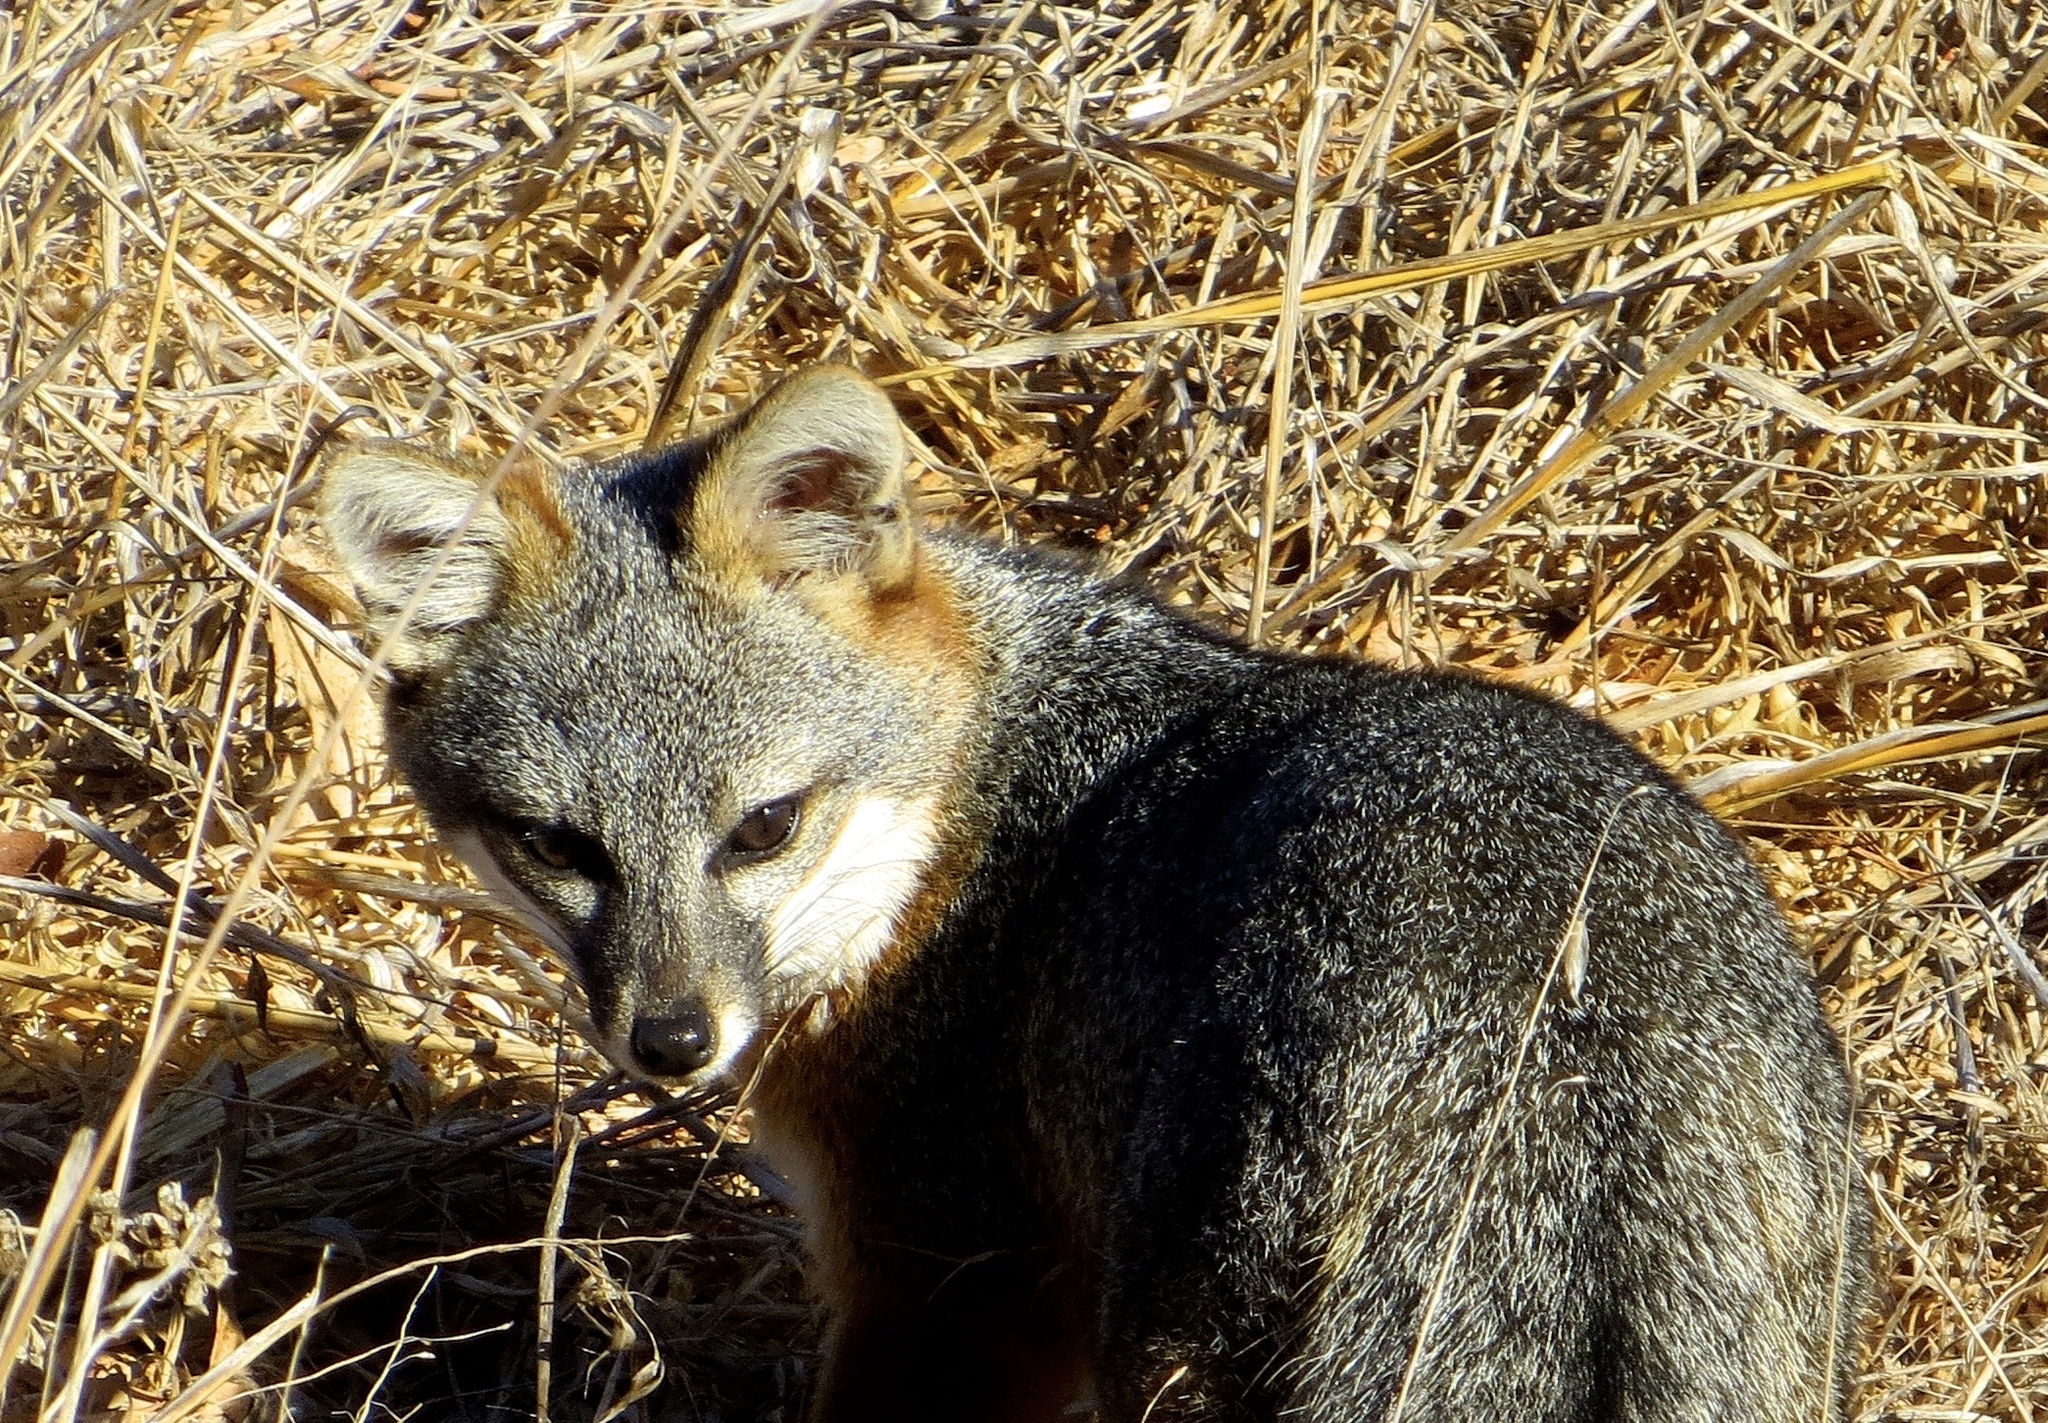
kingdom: Animalia
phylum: Chordata
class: Mammalia
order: Carnivora
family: Canidae
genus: Urocyon
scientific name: Urocyon littoralis
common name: Island gray fox
